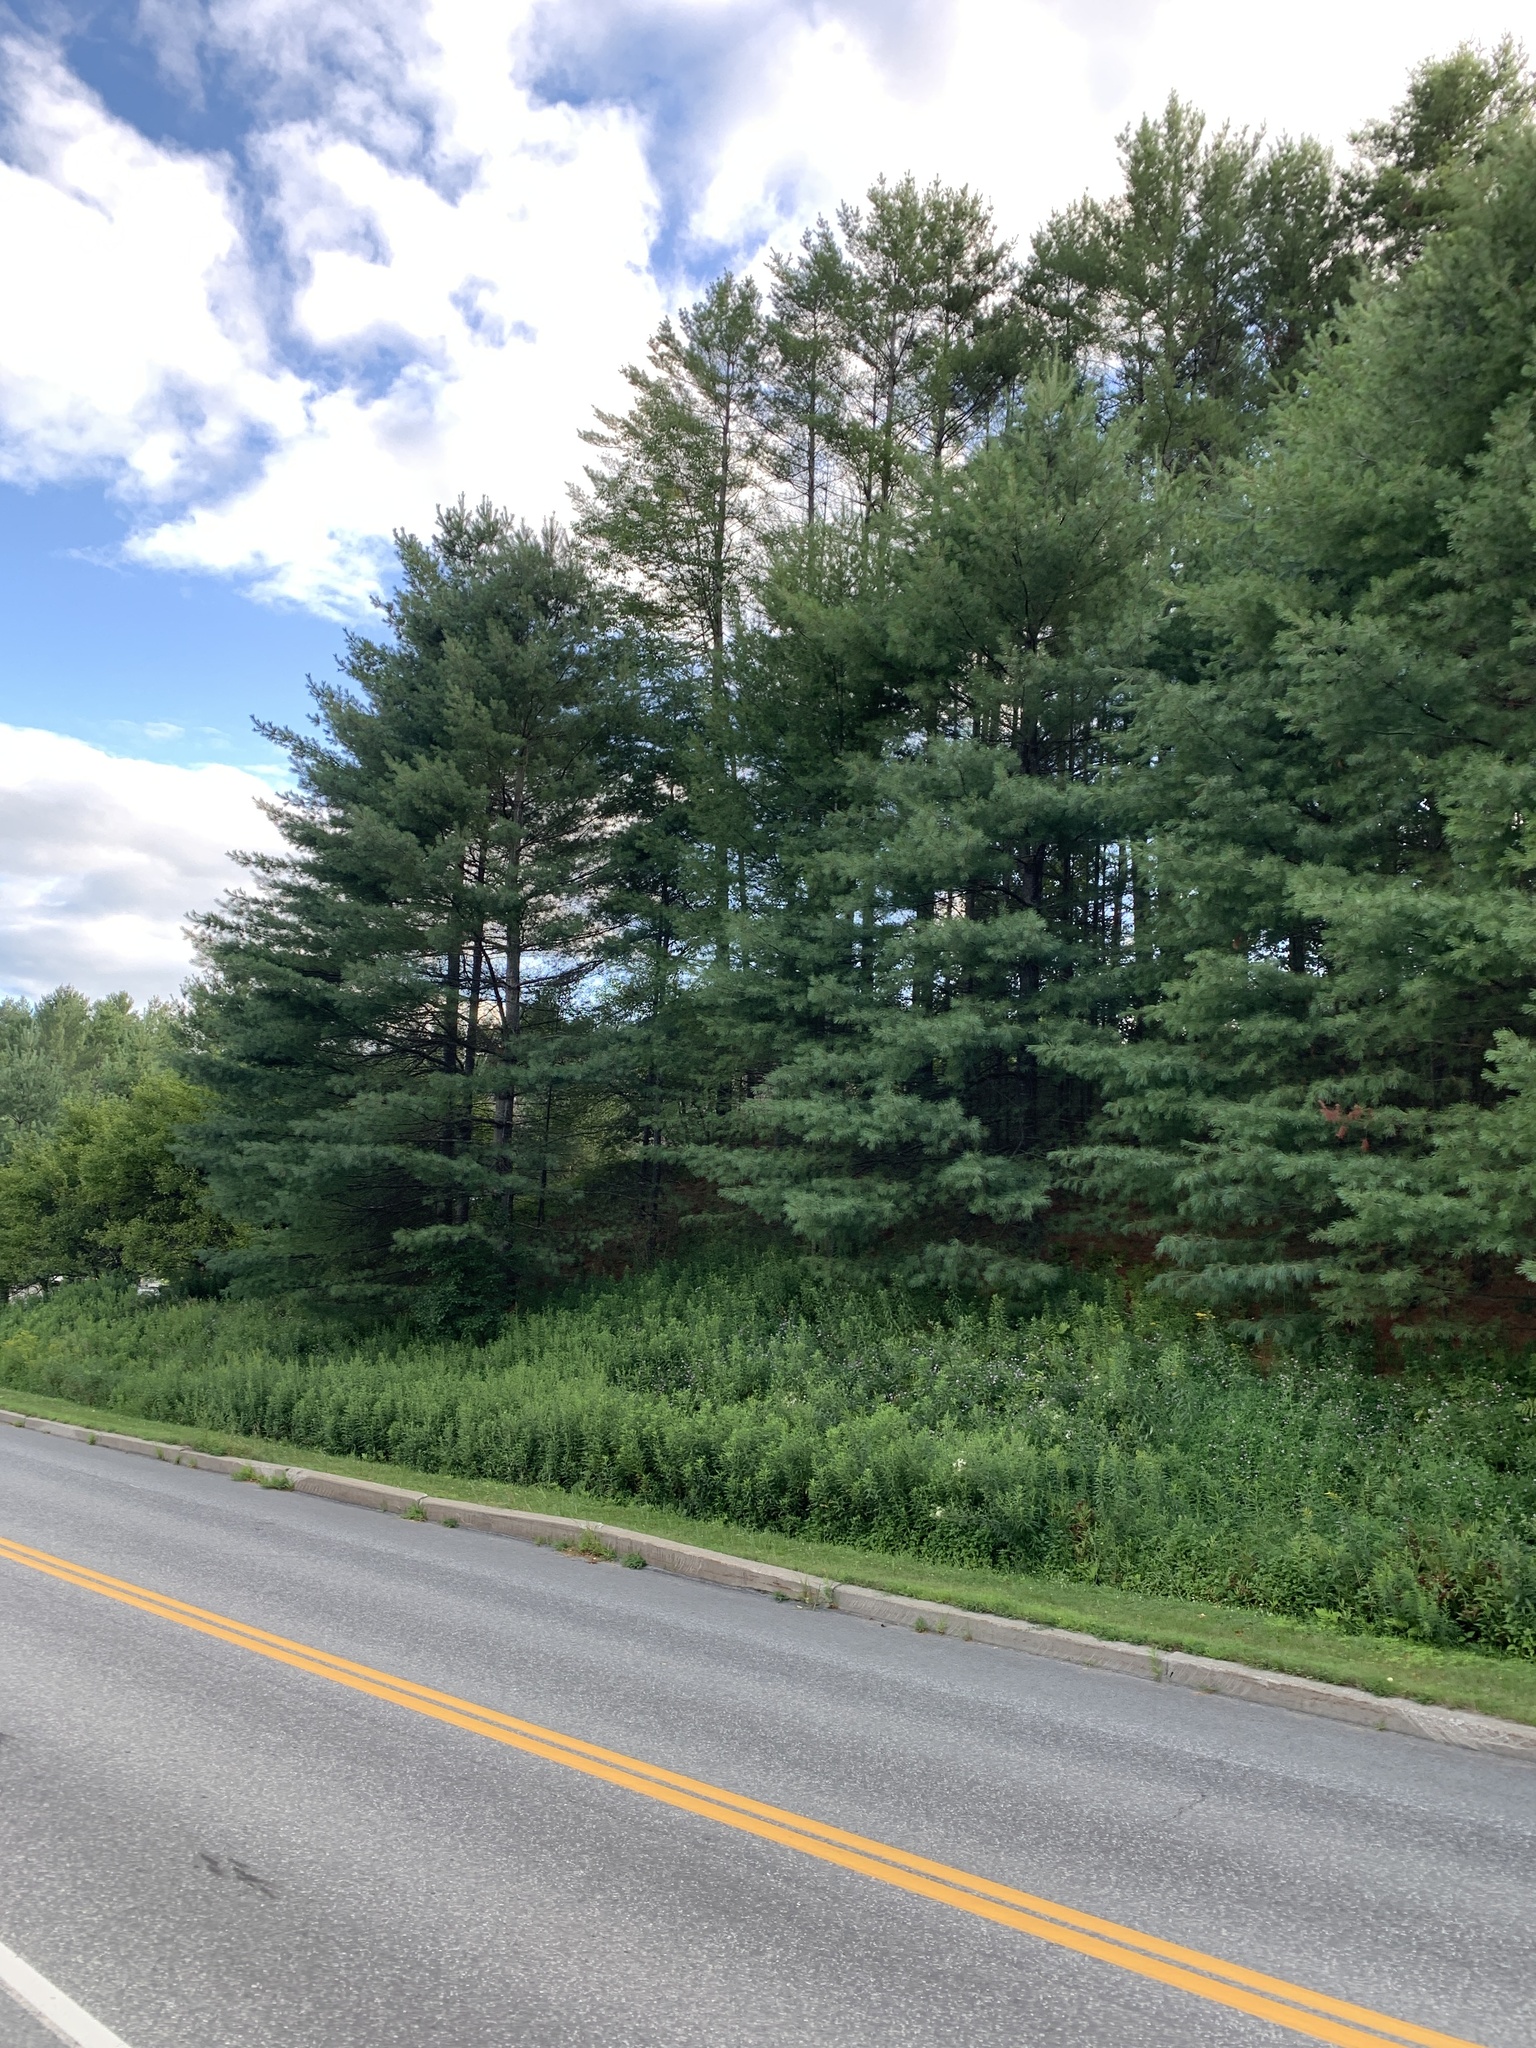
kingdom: Plantae
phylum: Tracheophyta
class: Pinopsida
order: Pinales
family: Pinaceae
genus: Pinus
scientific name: Pinus strobus
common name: Weymouth pine
